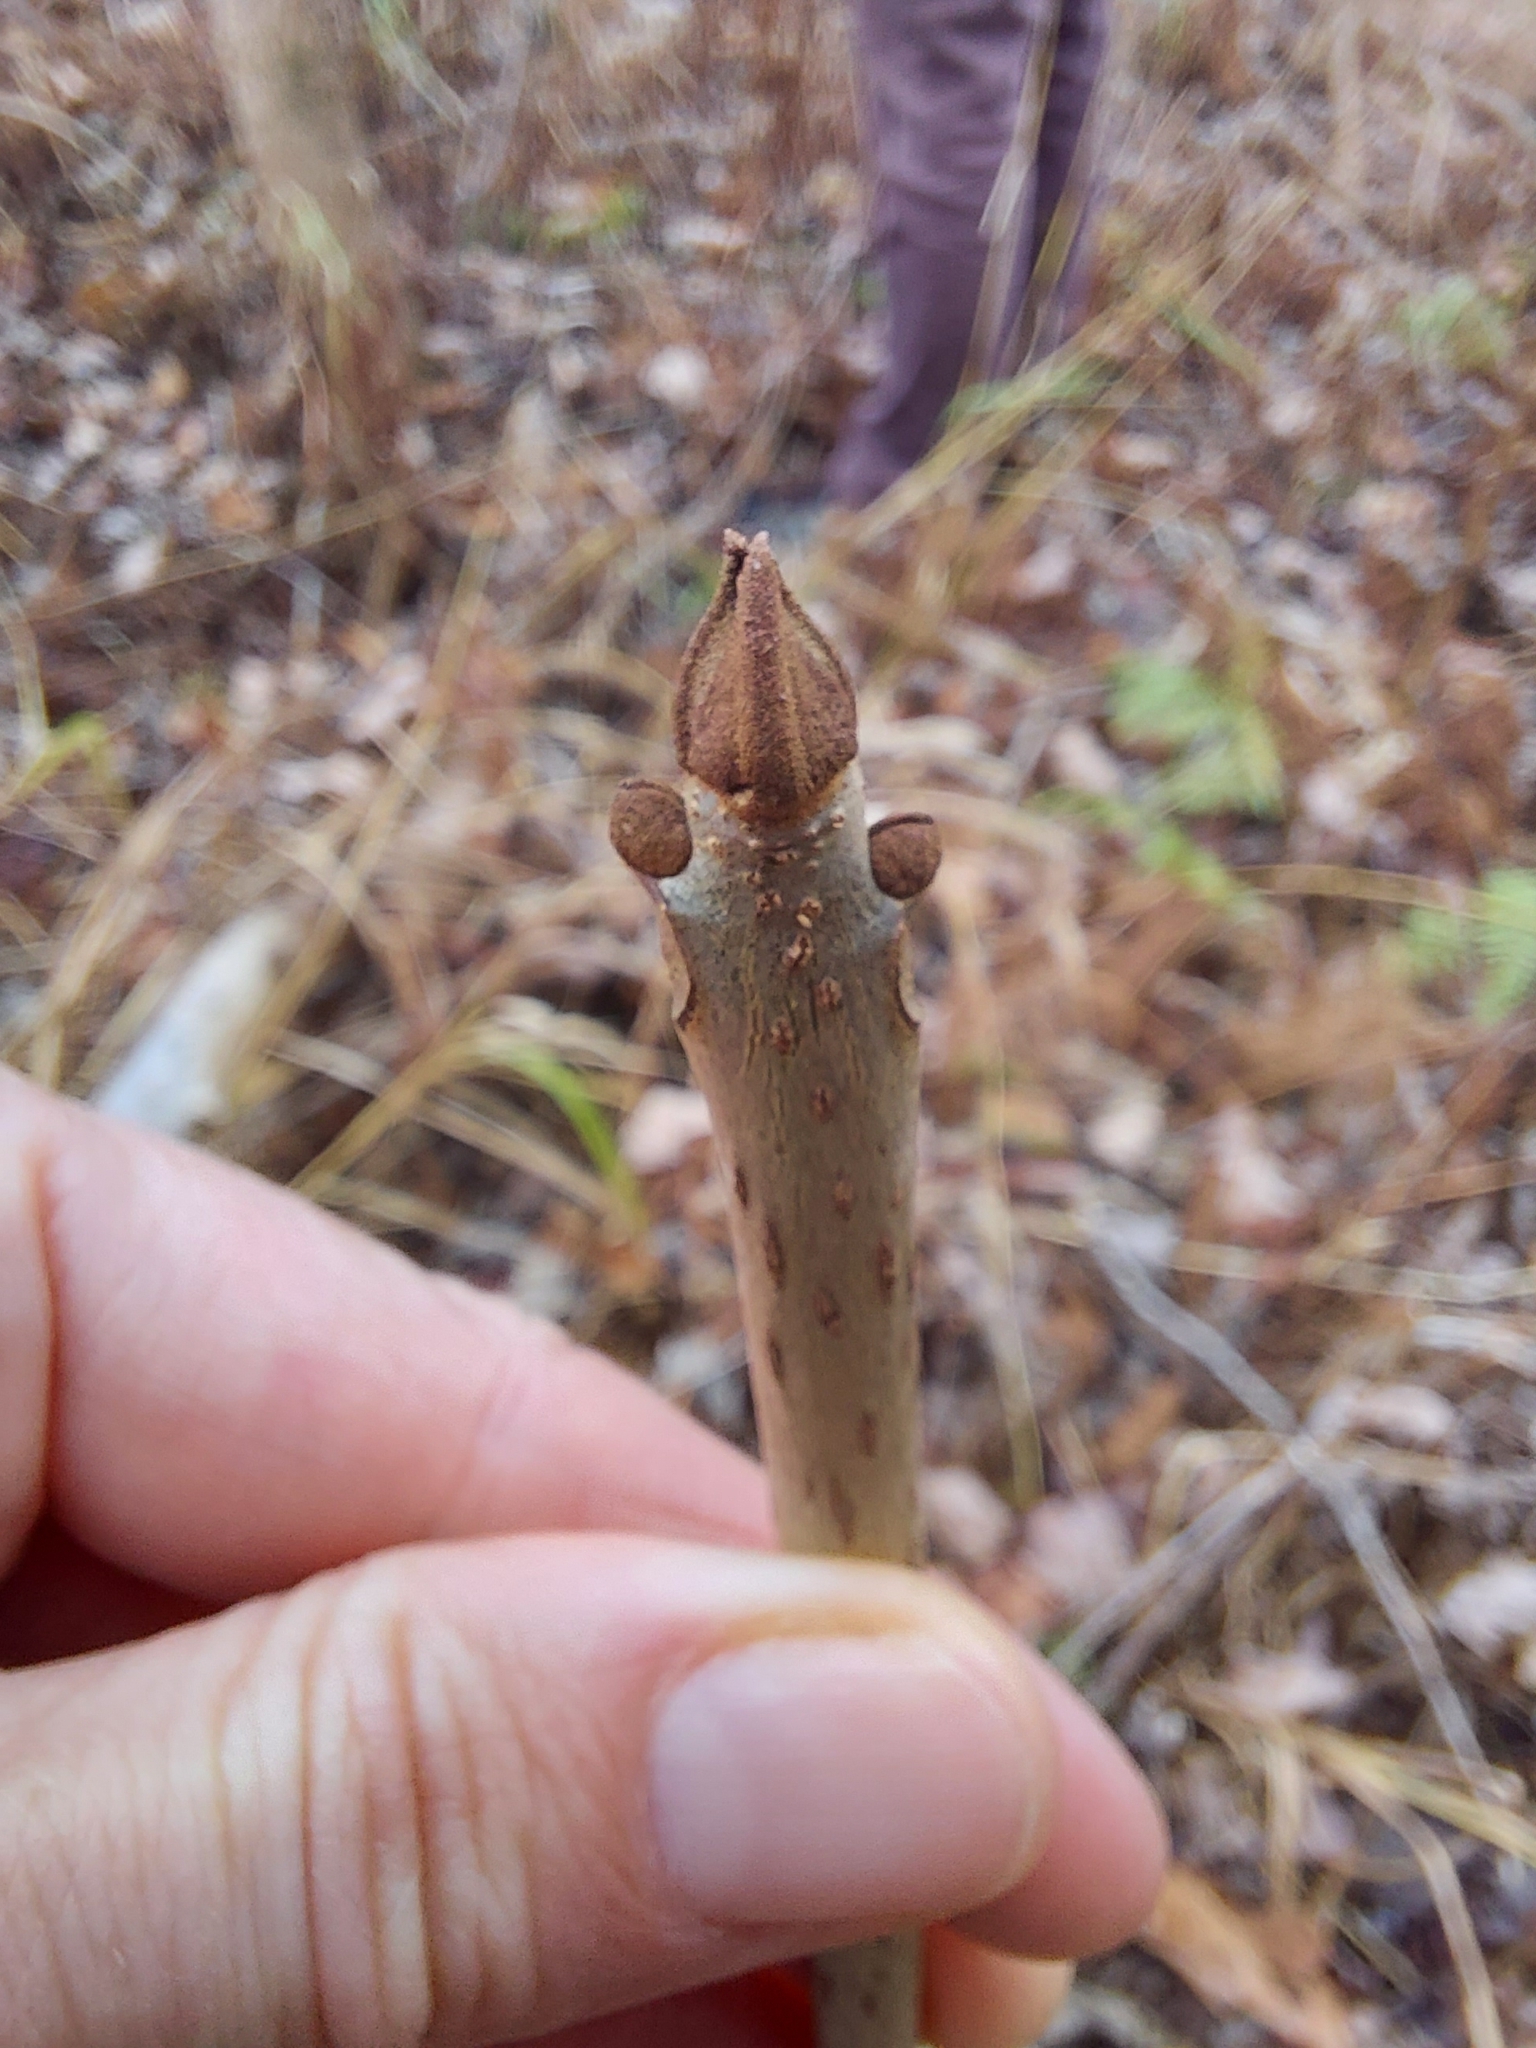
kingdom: Plantae
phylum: Tracheophyta
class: Magnoliopsida
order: Lamiales
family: Oleaceae
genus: Fraxinus
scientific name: Fraxinus nigra
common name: Black ash
